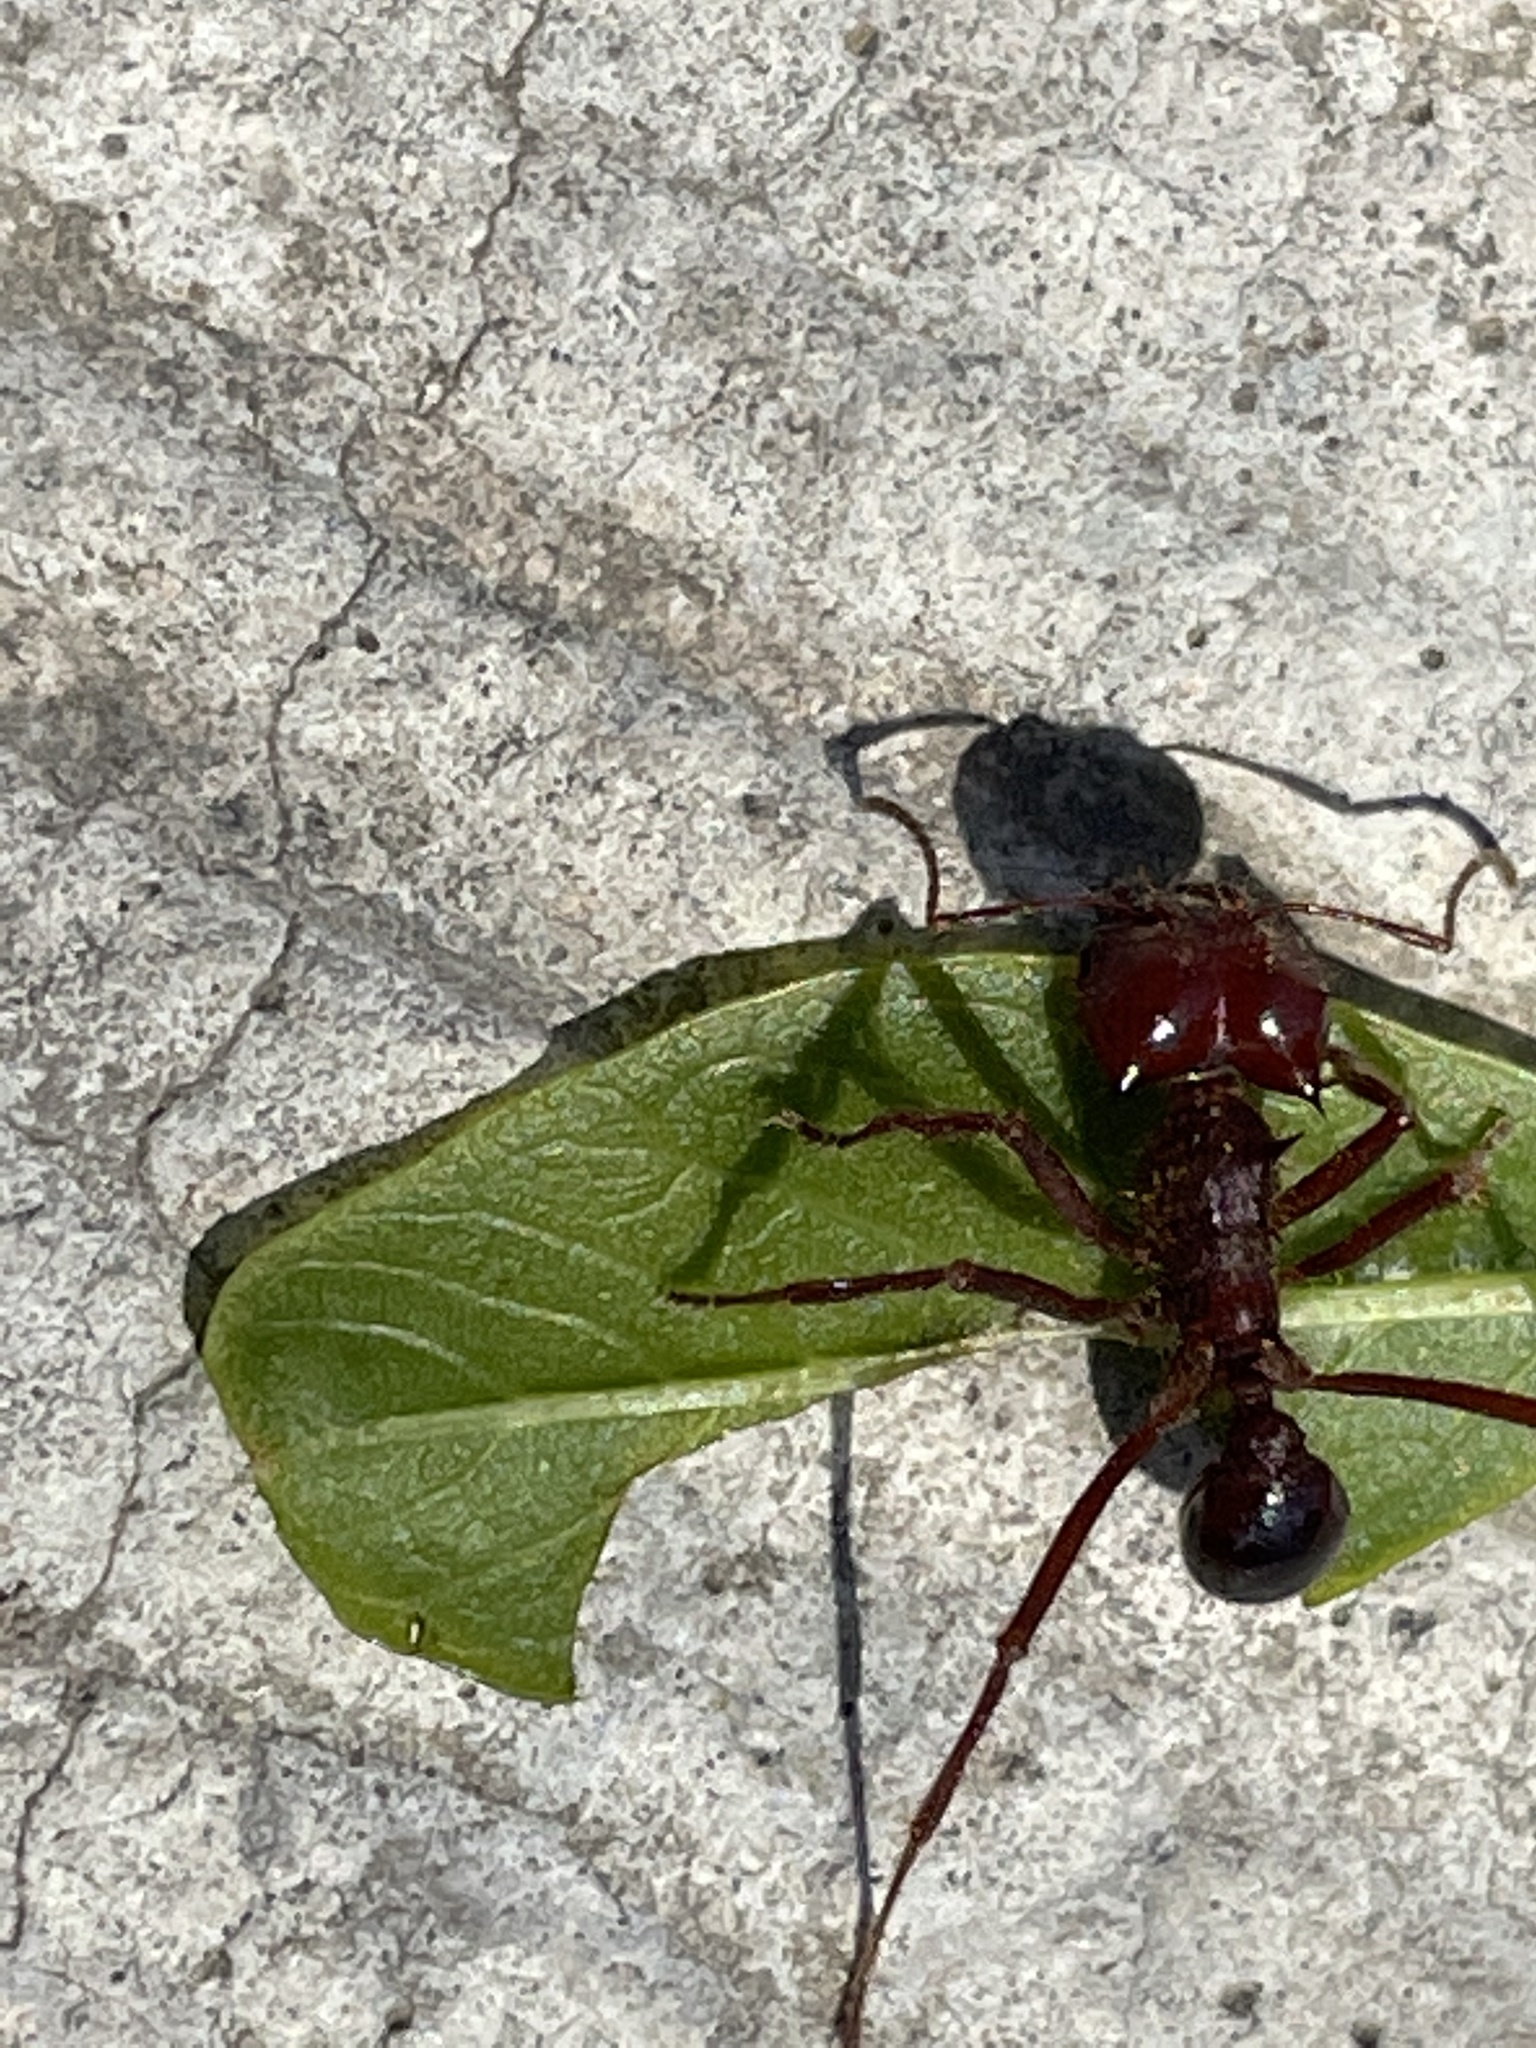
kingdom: Animalia
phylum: Arthropoda
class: Insecta
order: Hymenoptera
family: Formicidae
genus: Atta
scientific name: Atta mexicana
